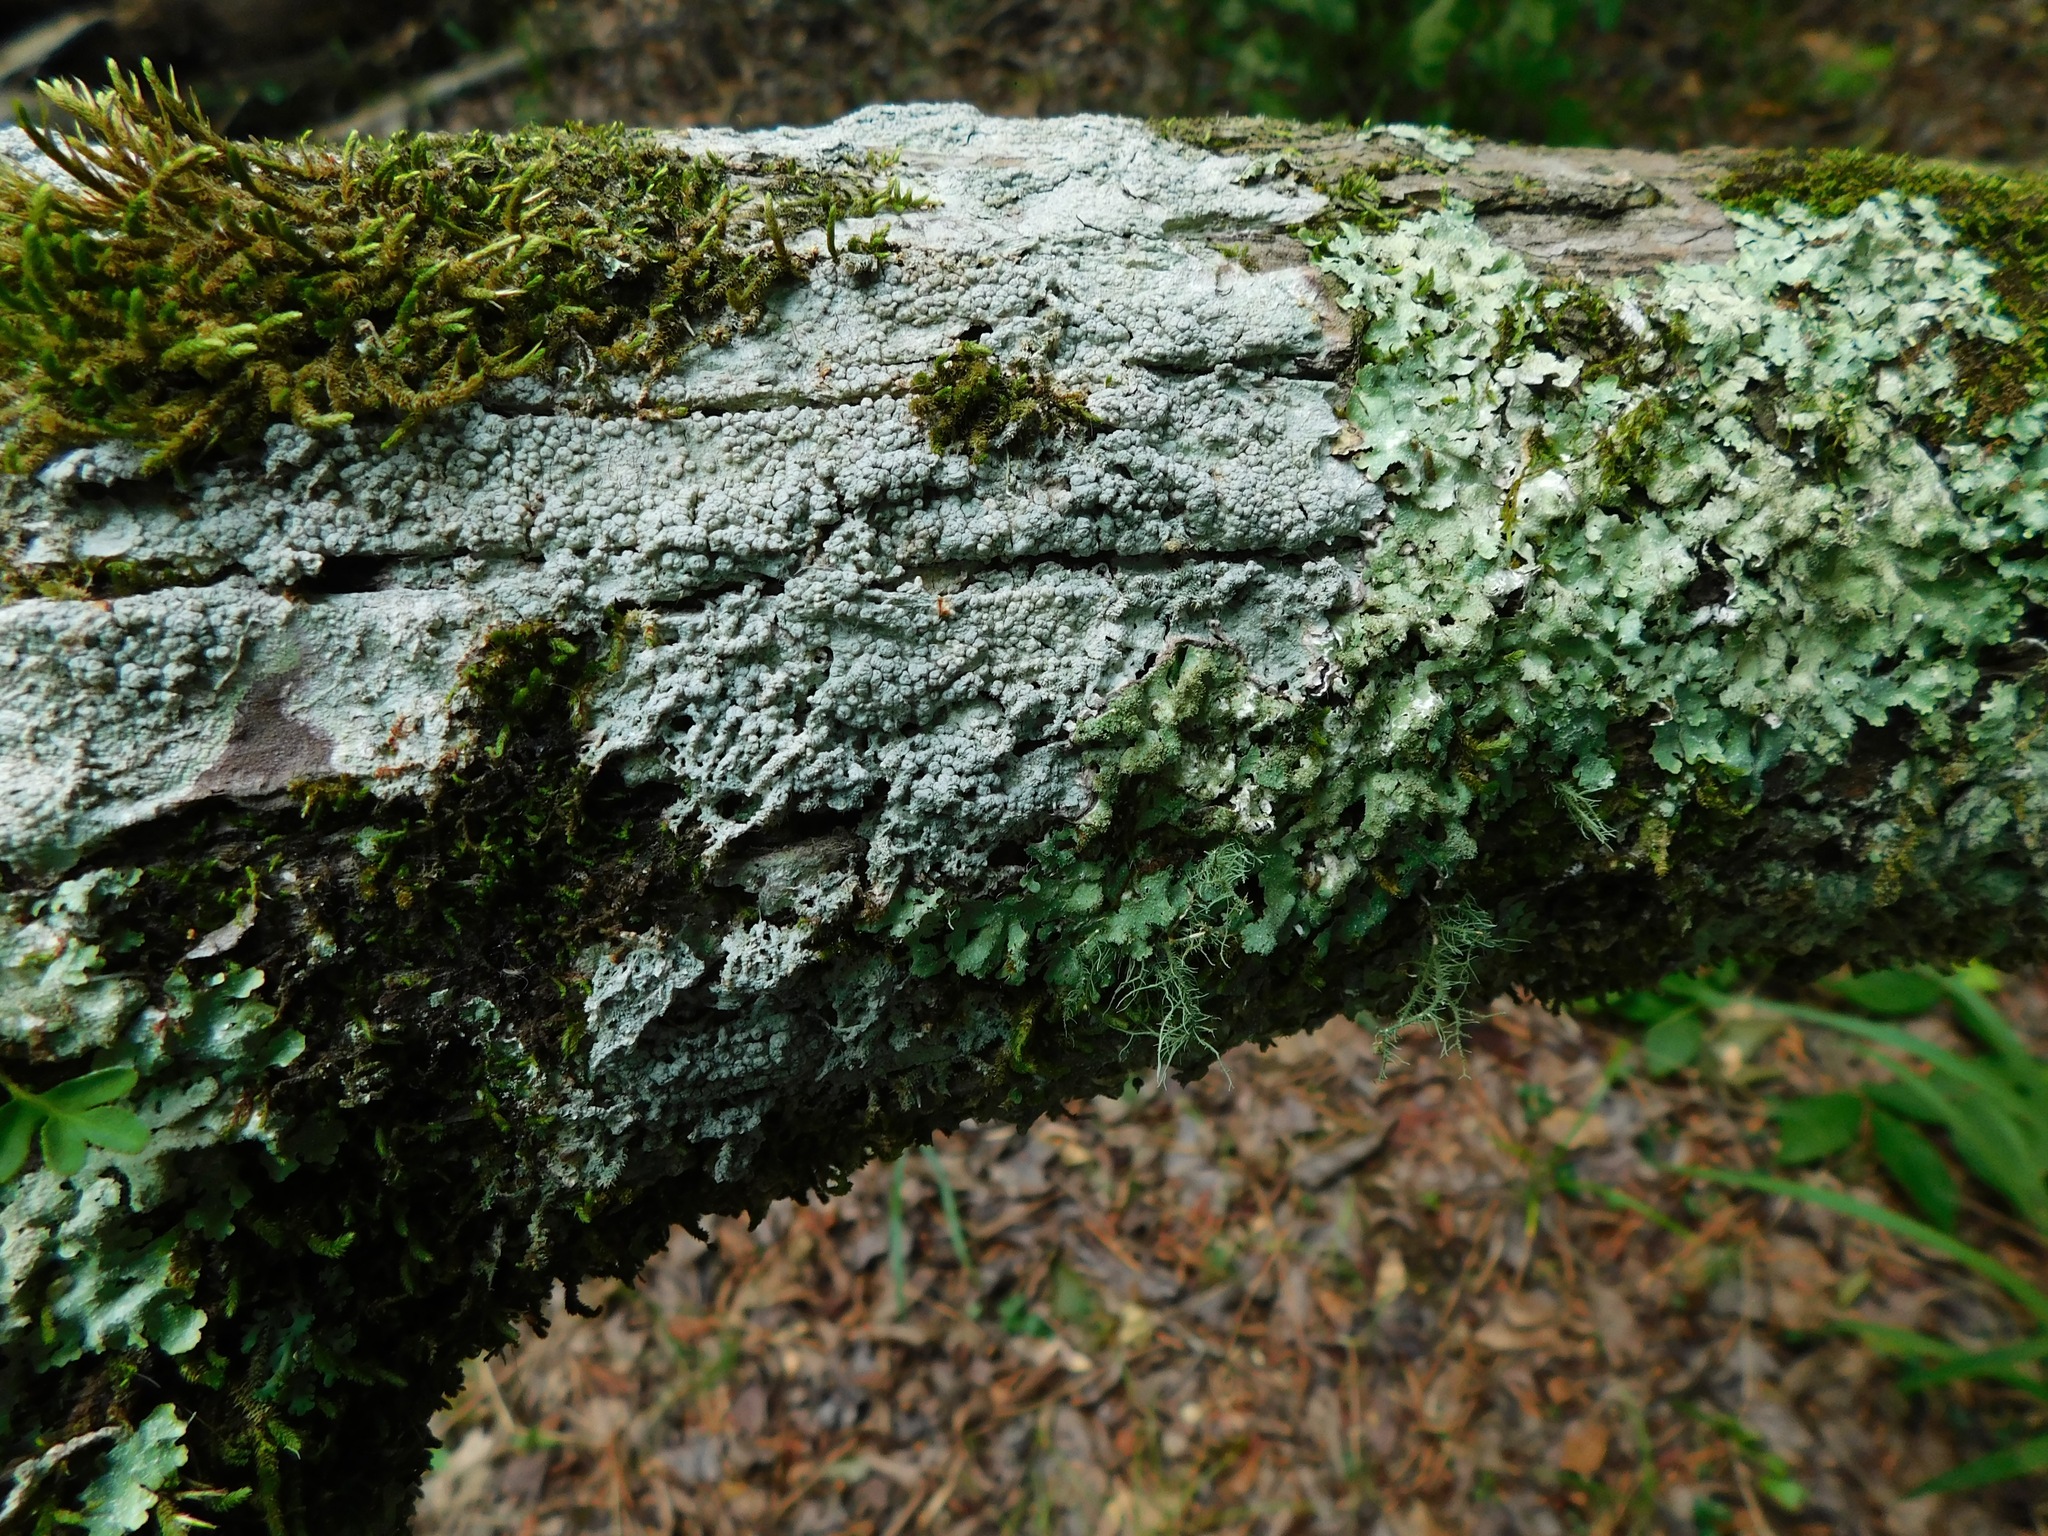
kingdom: Fungi
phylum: Ascomycota
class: Lecanoromycetes
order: Pertusariales
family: Pertusariaceae
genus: Pertusaria
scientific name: Pertusaria paratuberculifera
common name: Spotted wart lichen
